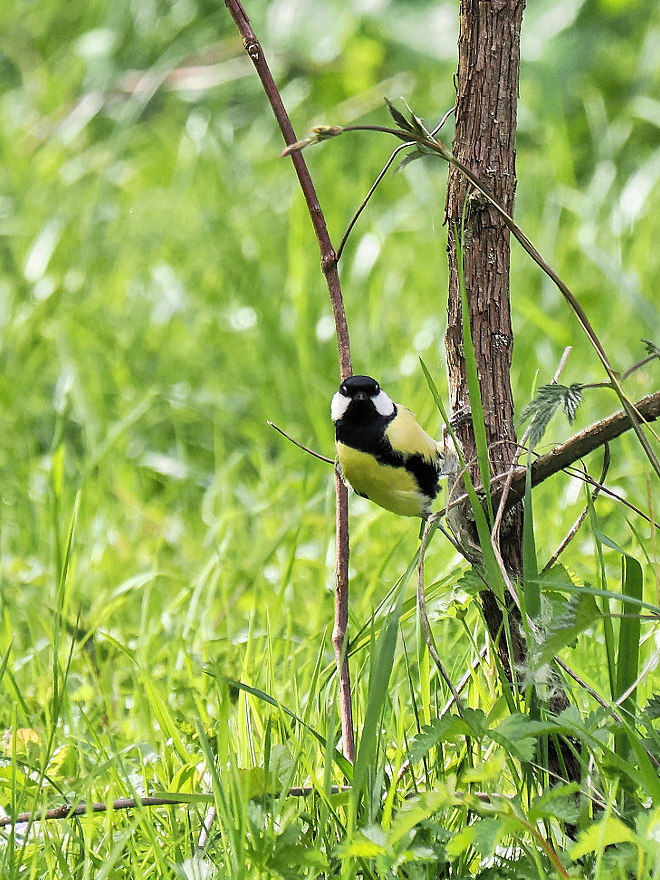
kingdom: Animalia
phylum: Chordata
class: Aves
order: Passeriformes
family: Paridae
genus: Parus
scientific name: Parus major
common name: Great tit
